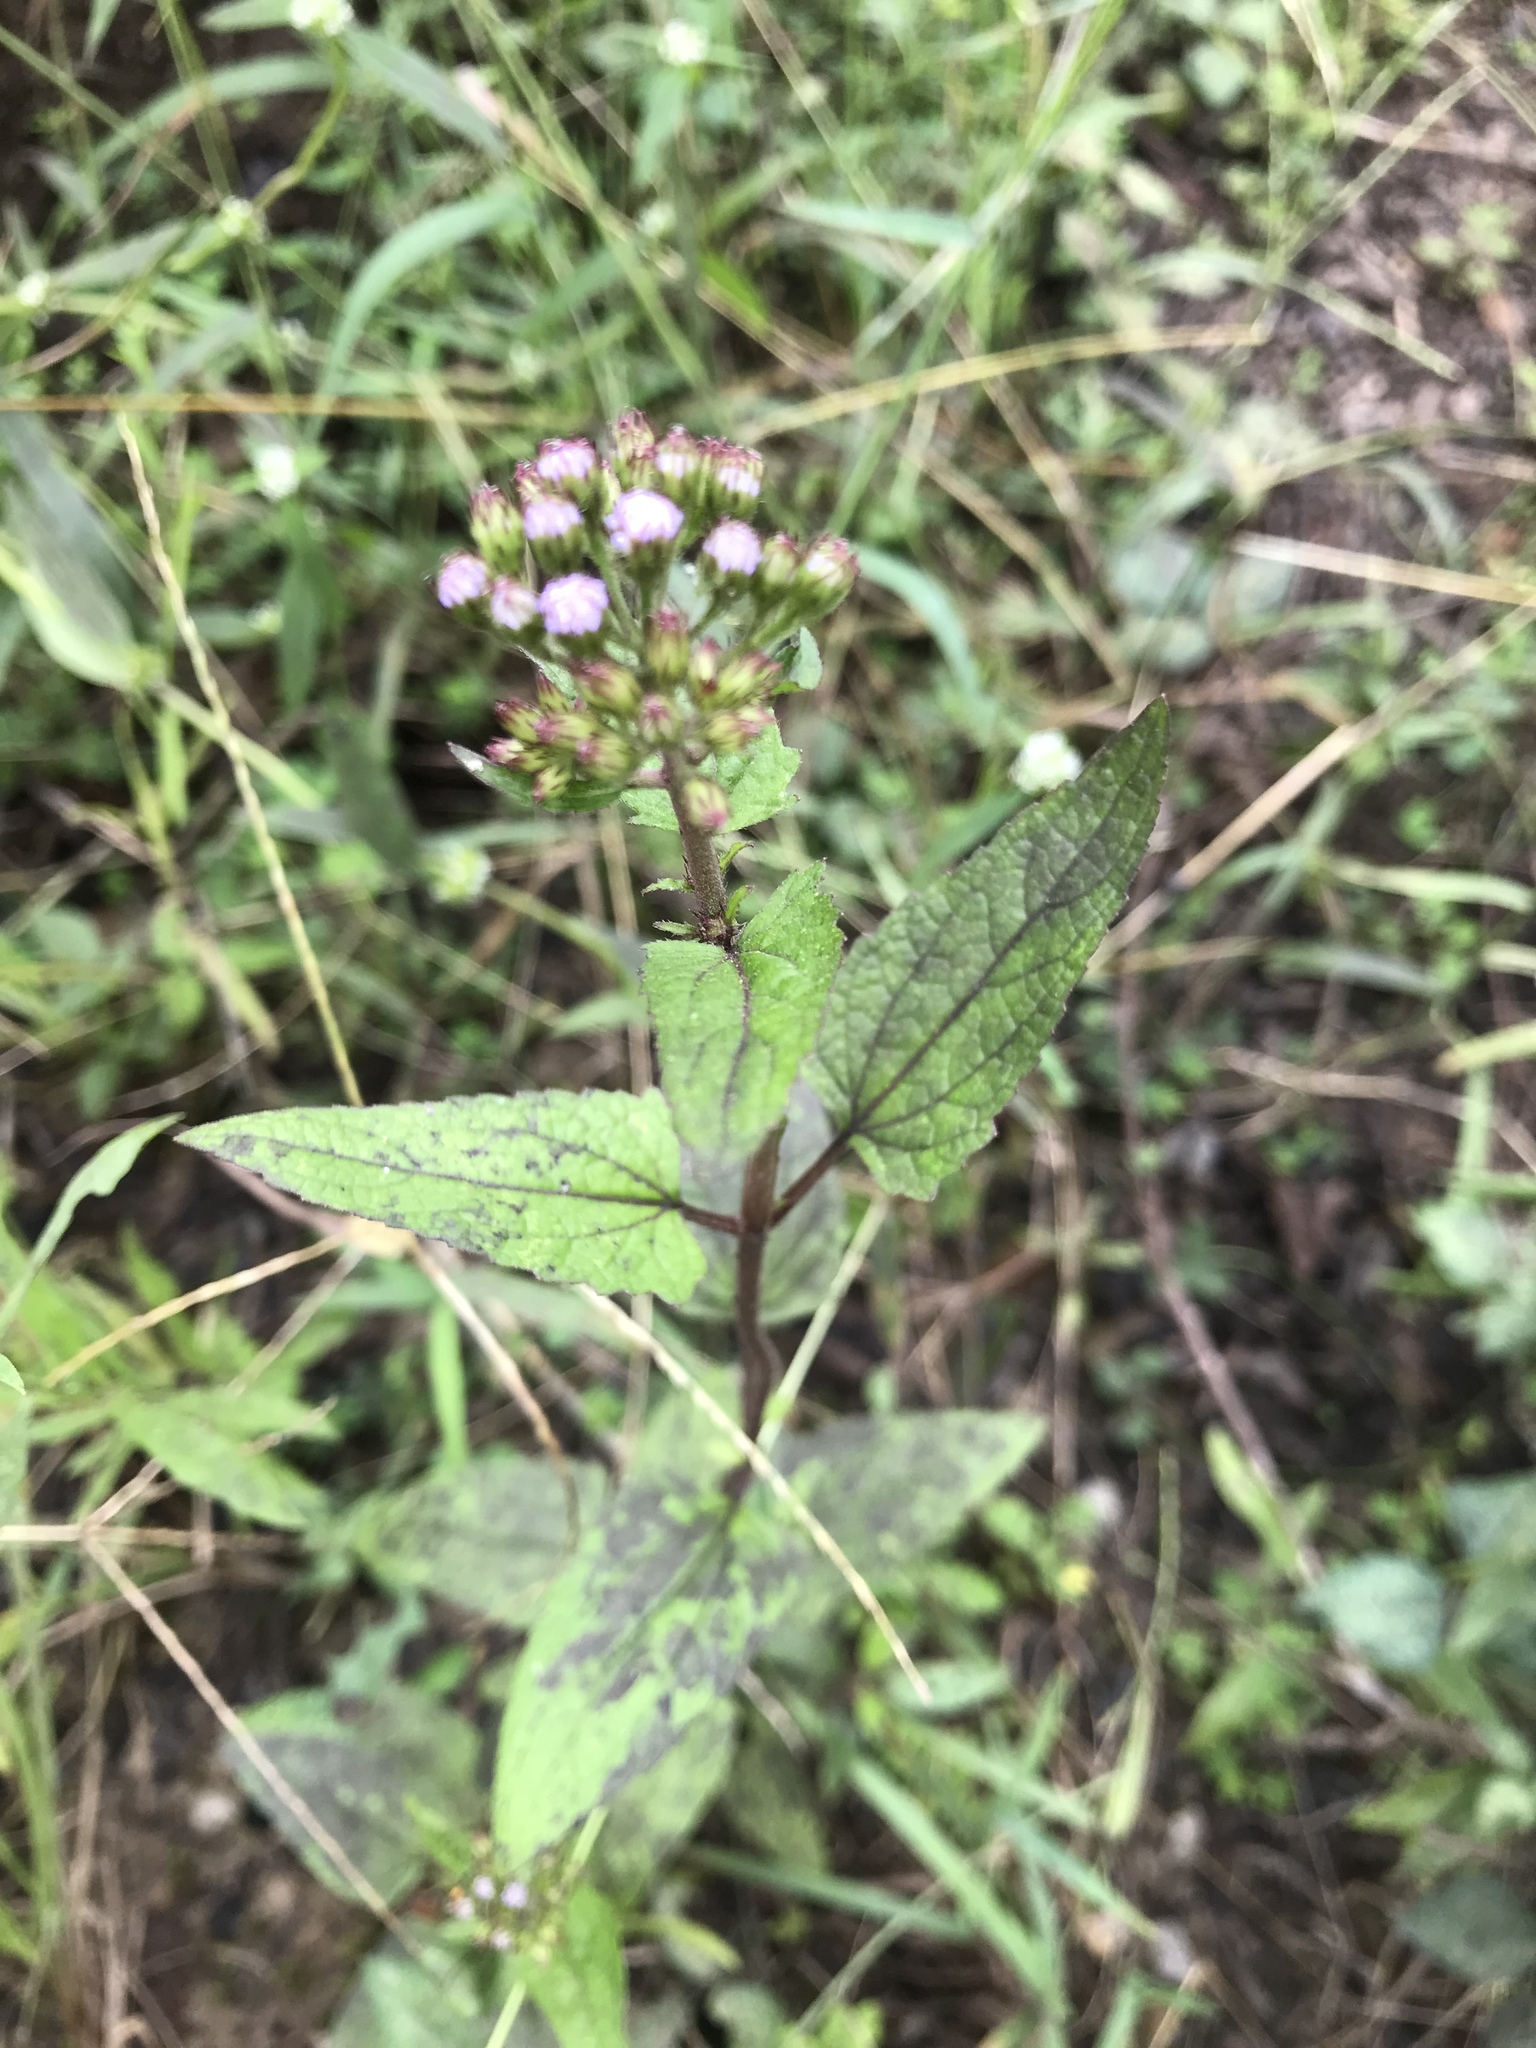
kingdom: Plantae
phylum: Tracheophyta
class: Magnoliopsida
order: Asterales
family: Asteraceae
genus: Conoclinium
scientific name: Conoclinium coelestinum
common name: Blue mistflower
